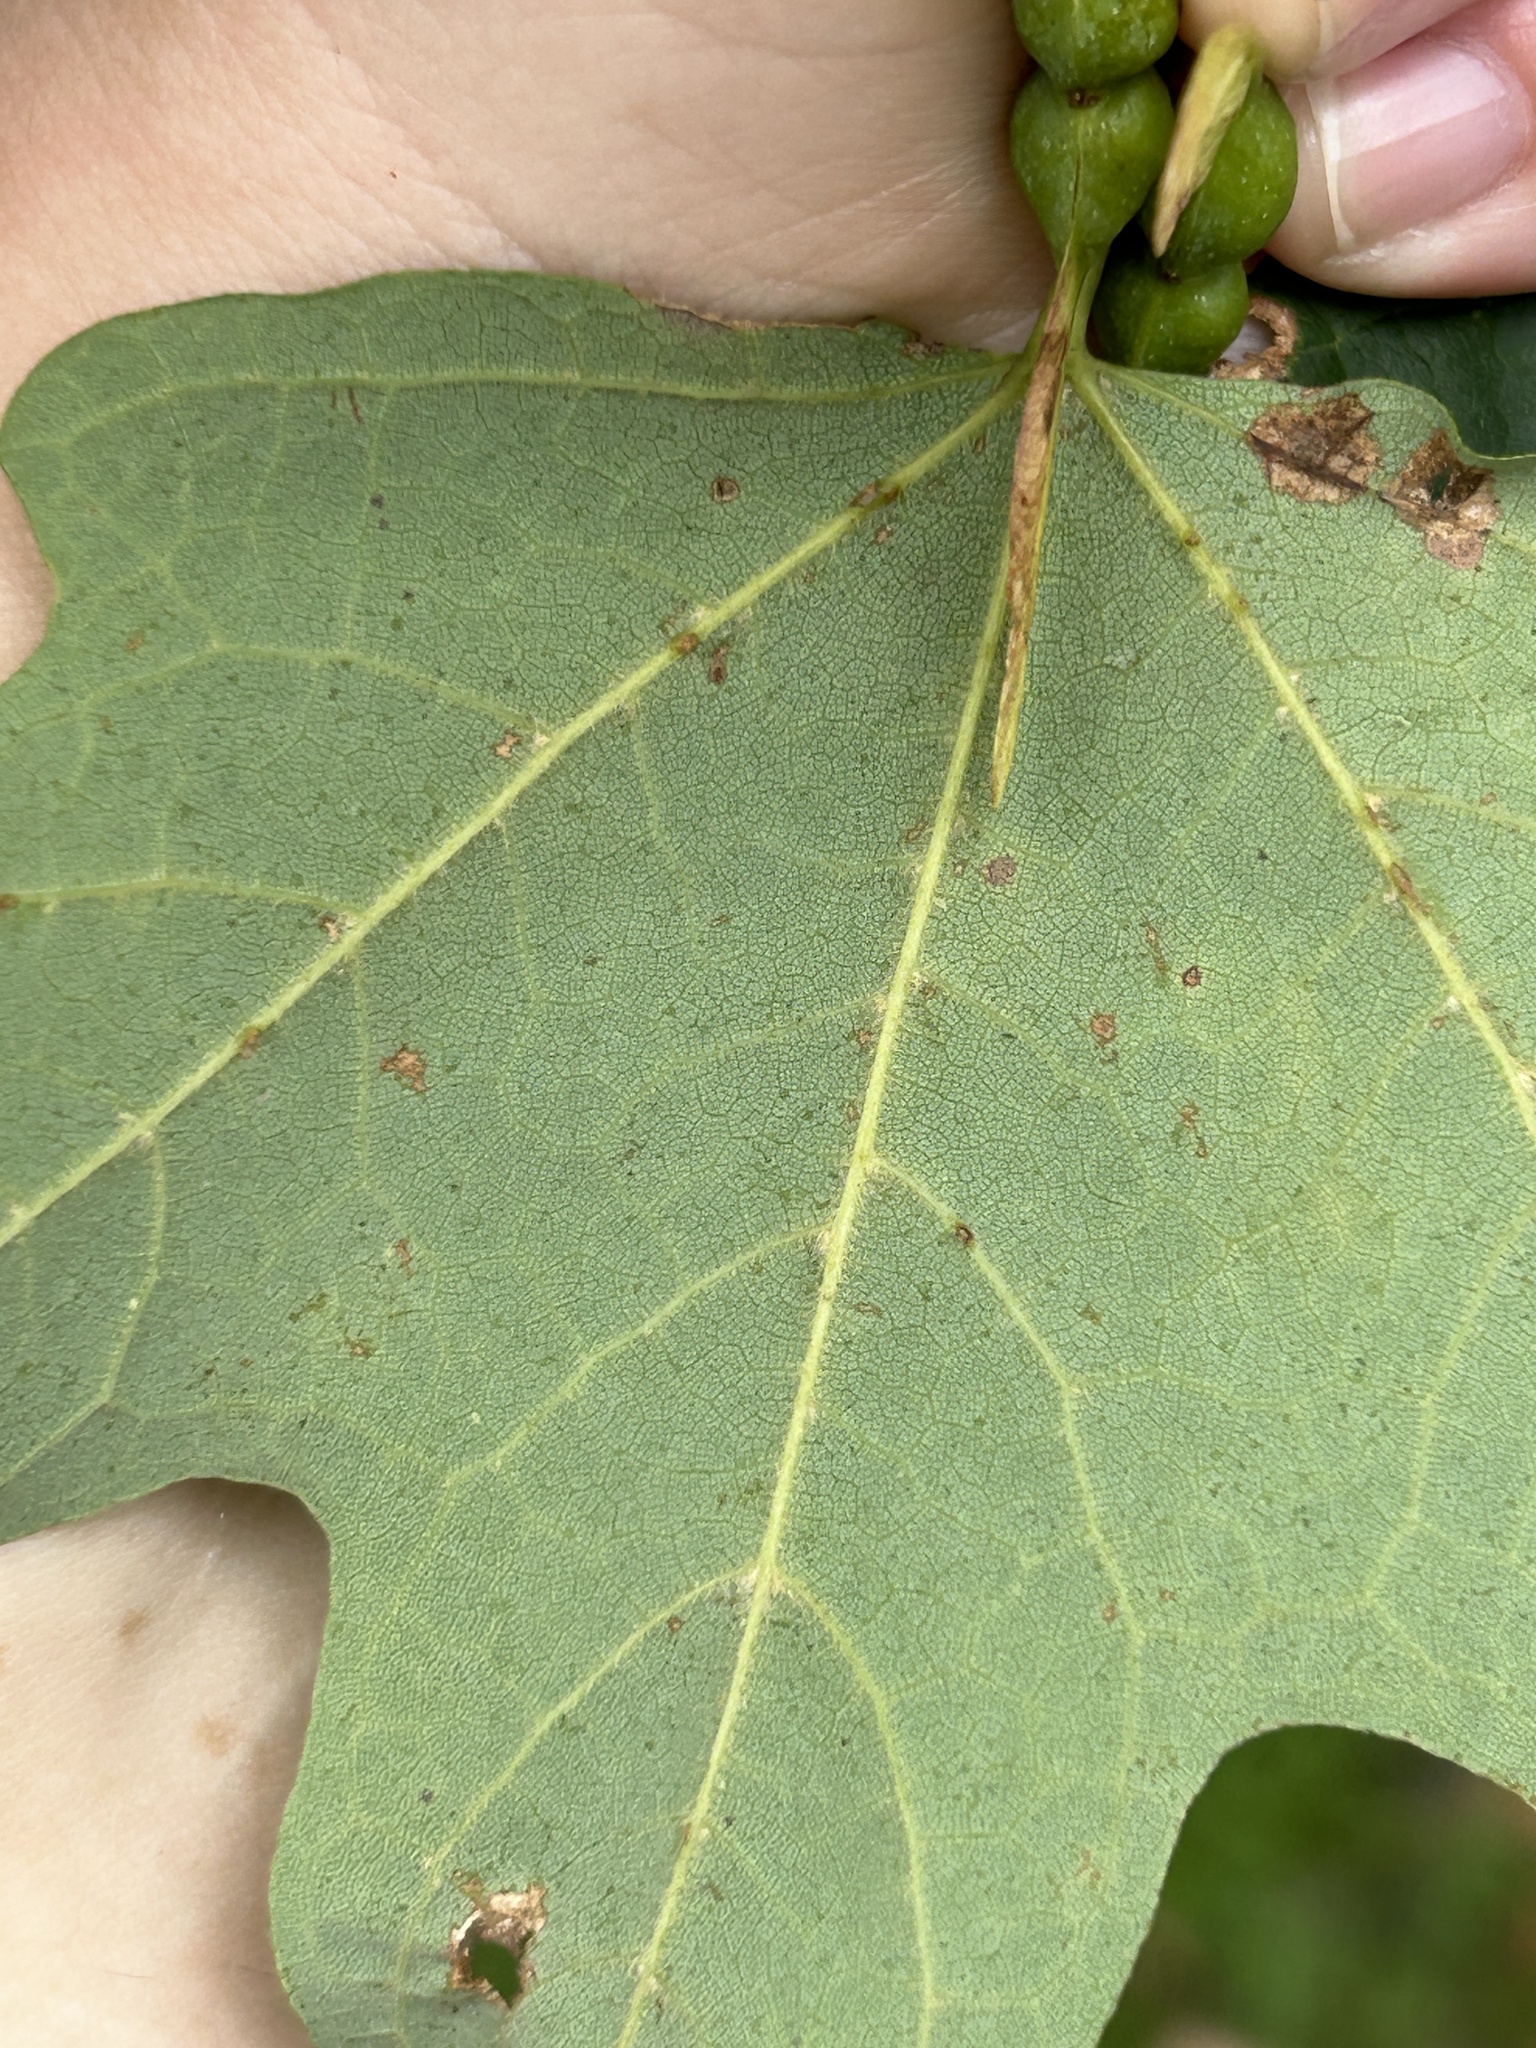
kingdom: Plantae
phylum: Tracheophyta
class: Magnoliopsida
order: Sapindales
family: Sapindaceae
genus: Acer
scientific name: Acer saccharum
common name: Sugar maple
